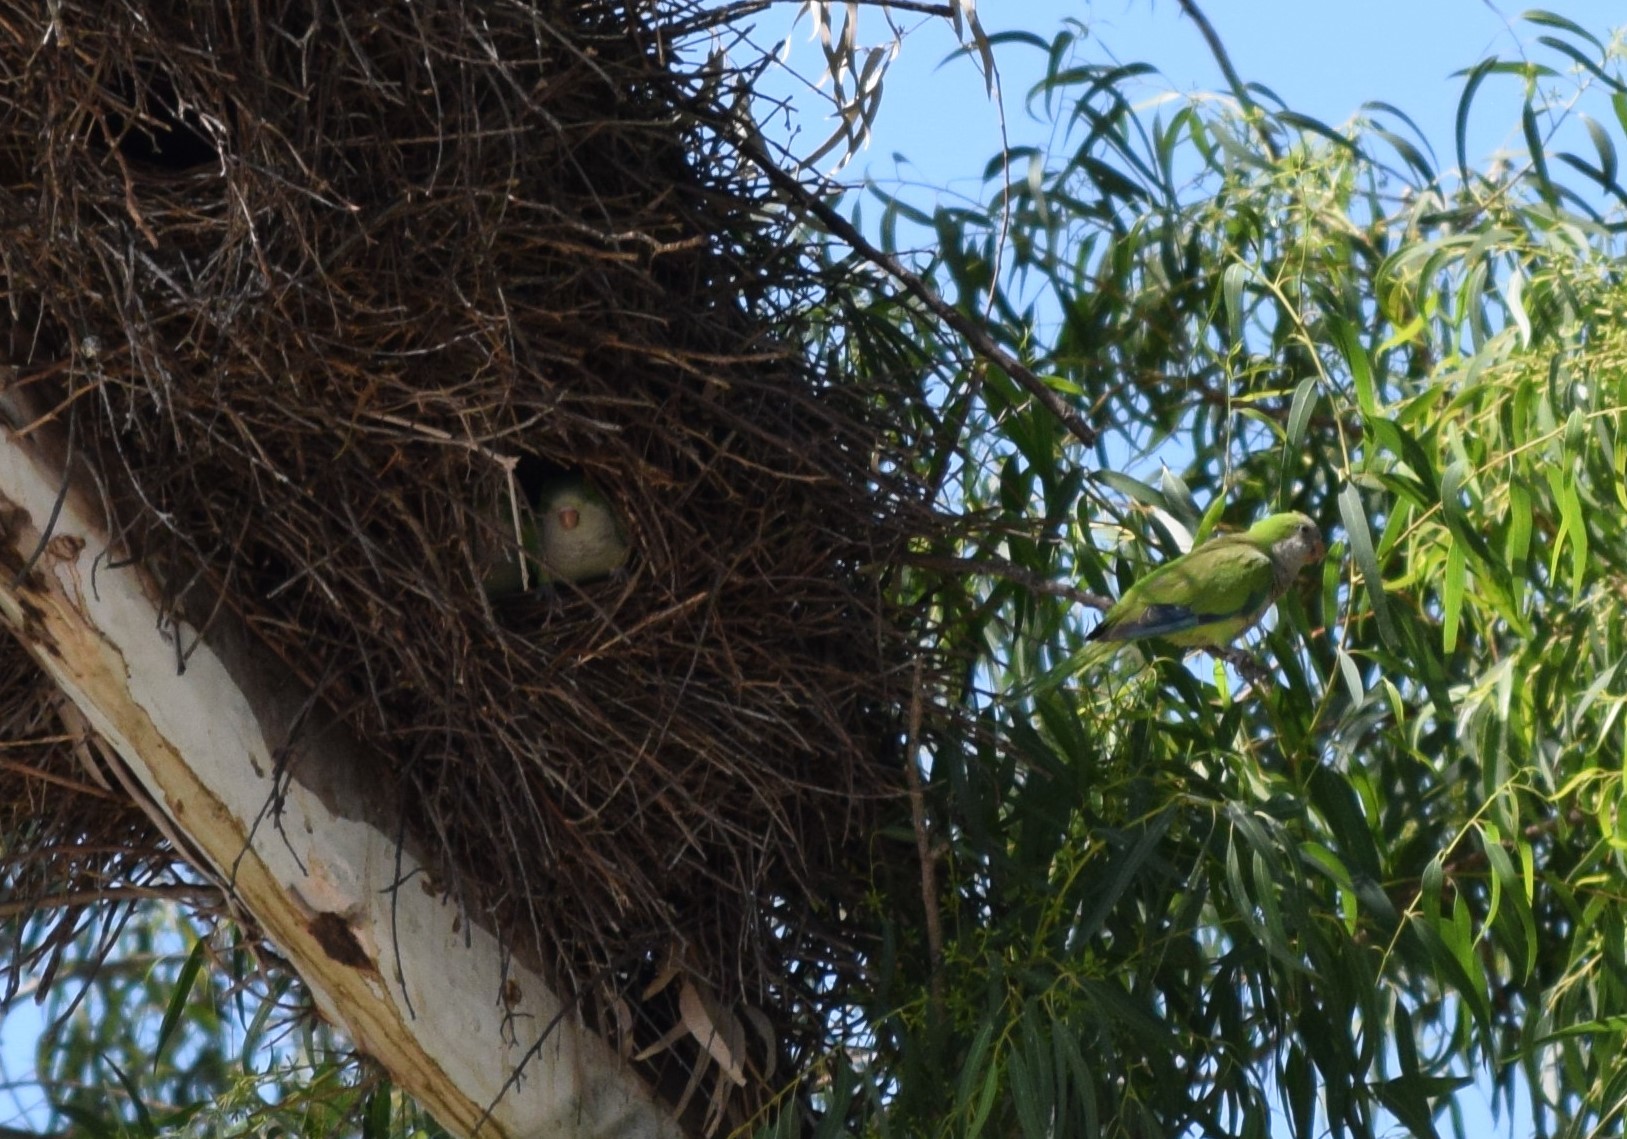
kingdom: Animalia
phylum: Chordata
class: Aves
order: Psittaciformes
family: Psittacidae
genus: Myiopsitta
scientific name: Myiopsitta monachus
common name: Monk parakeet
